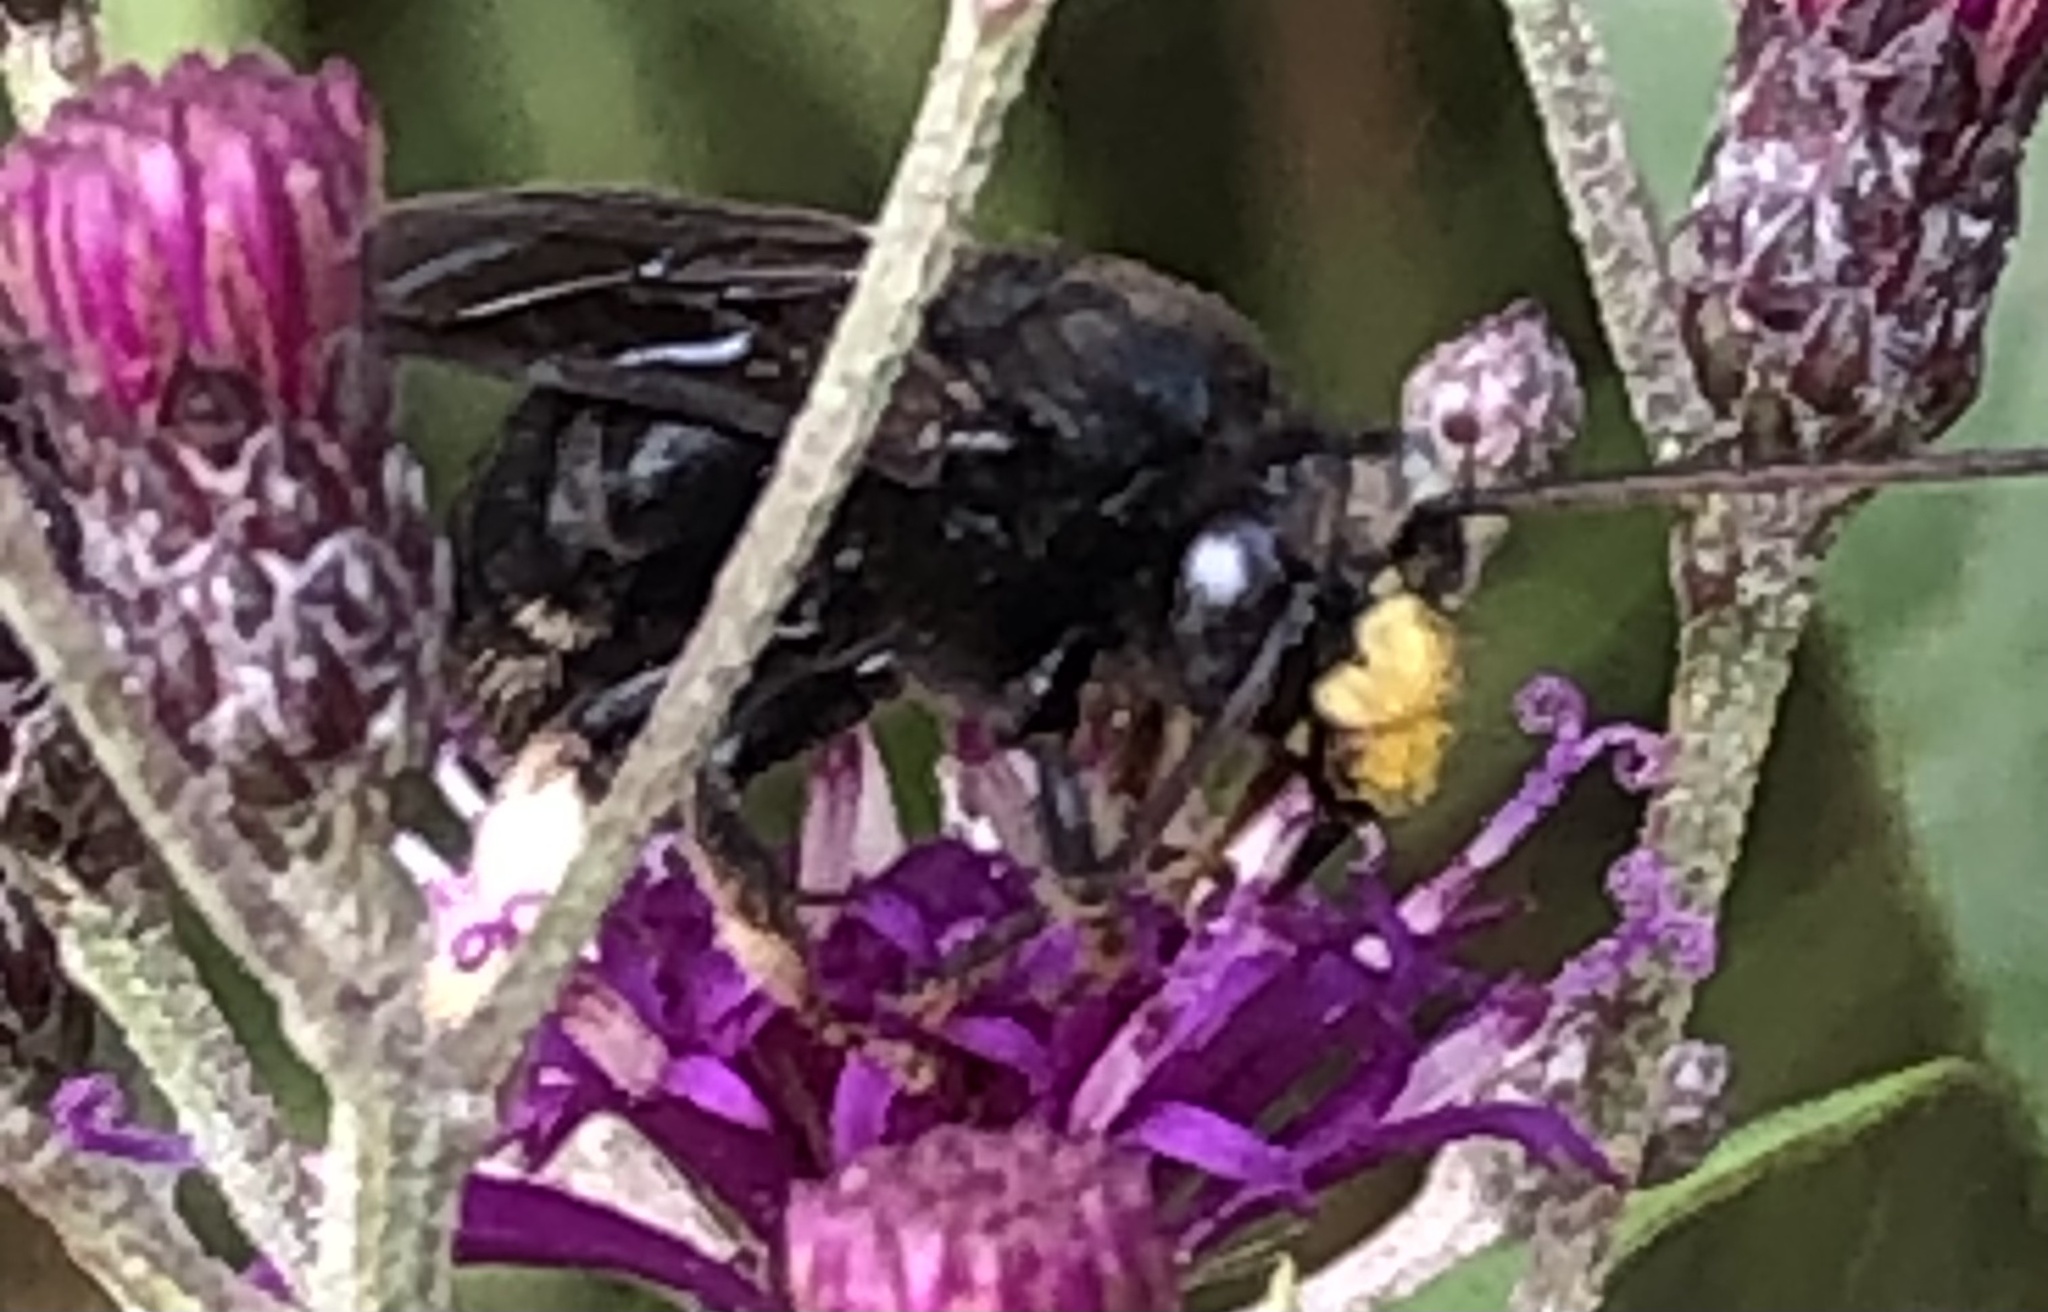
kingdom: Animalia
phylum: Arthropoda
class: Insecta
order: Hymenoptera
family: Apidae
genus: Melissodes
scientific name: Melissodes bimaculatus
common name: Two-spotted long-horned bee
